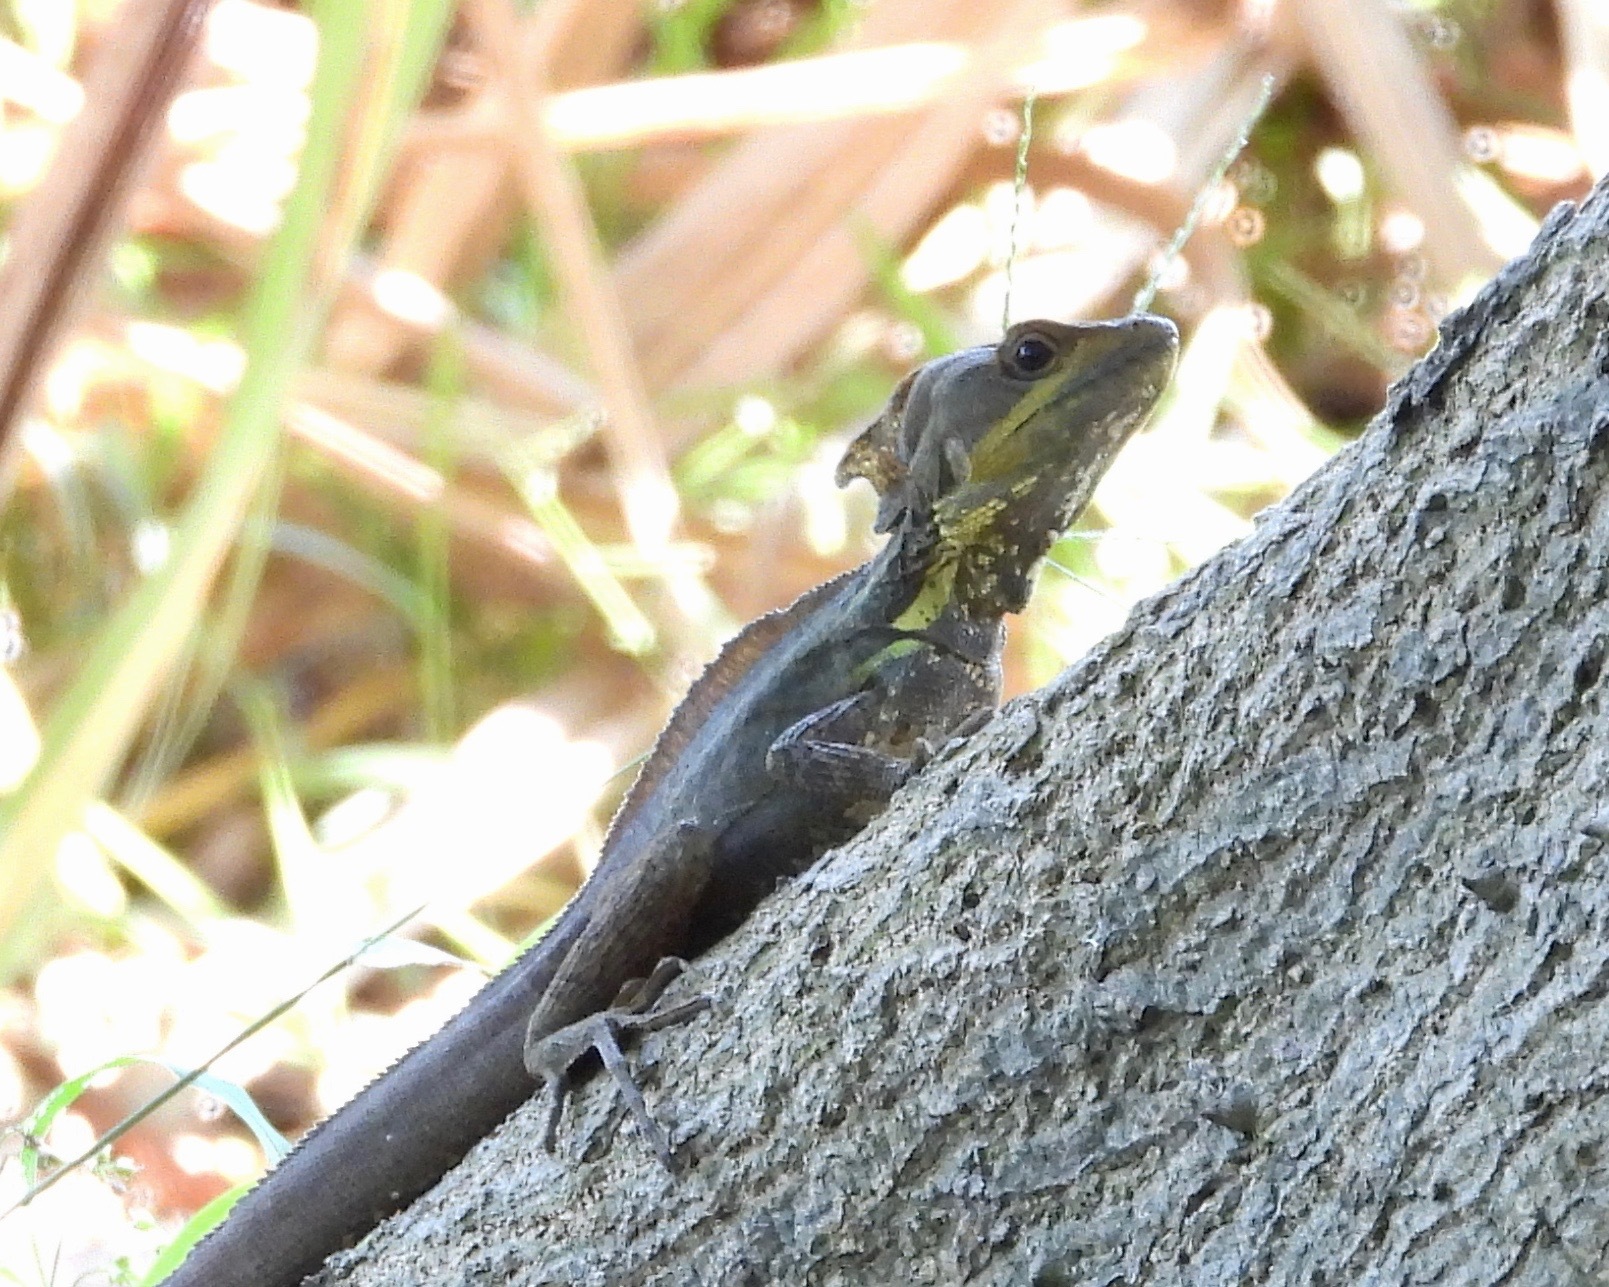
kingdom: Animalia
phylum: Chordata
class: Squamata
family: Corytophanidae
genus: Basiliscus
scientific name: Basiliscus vittatus
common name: Brown basilisk
